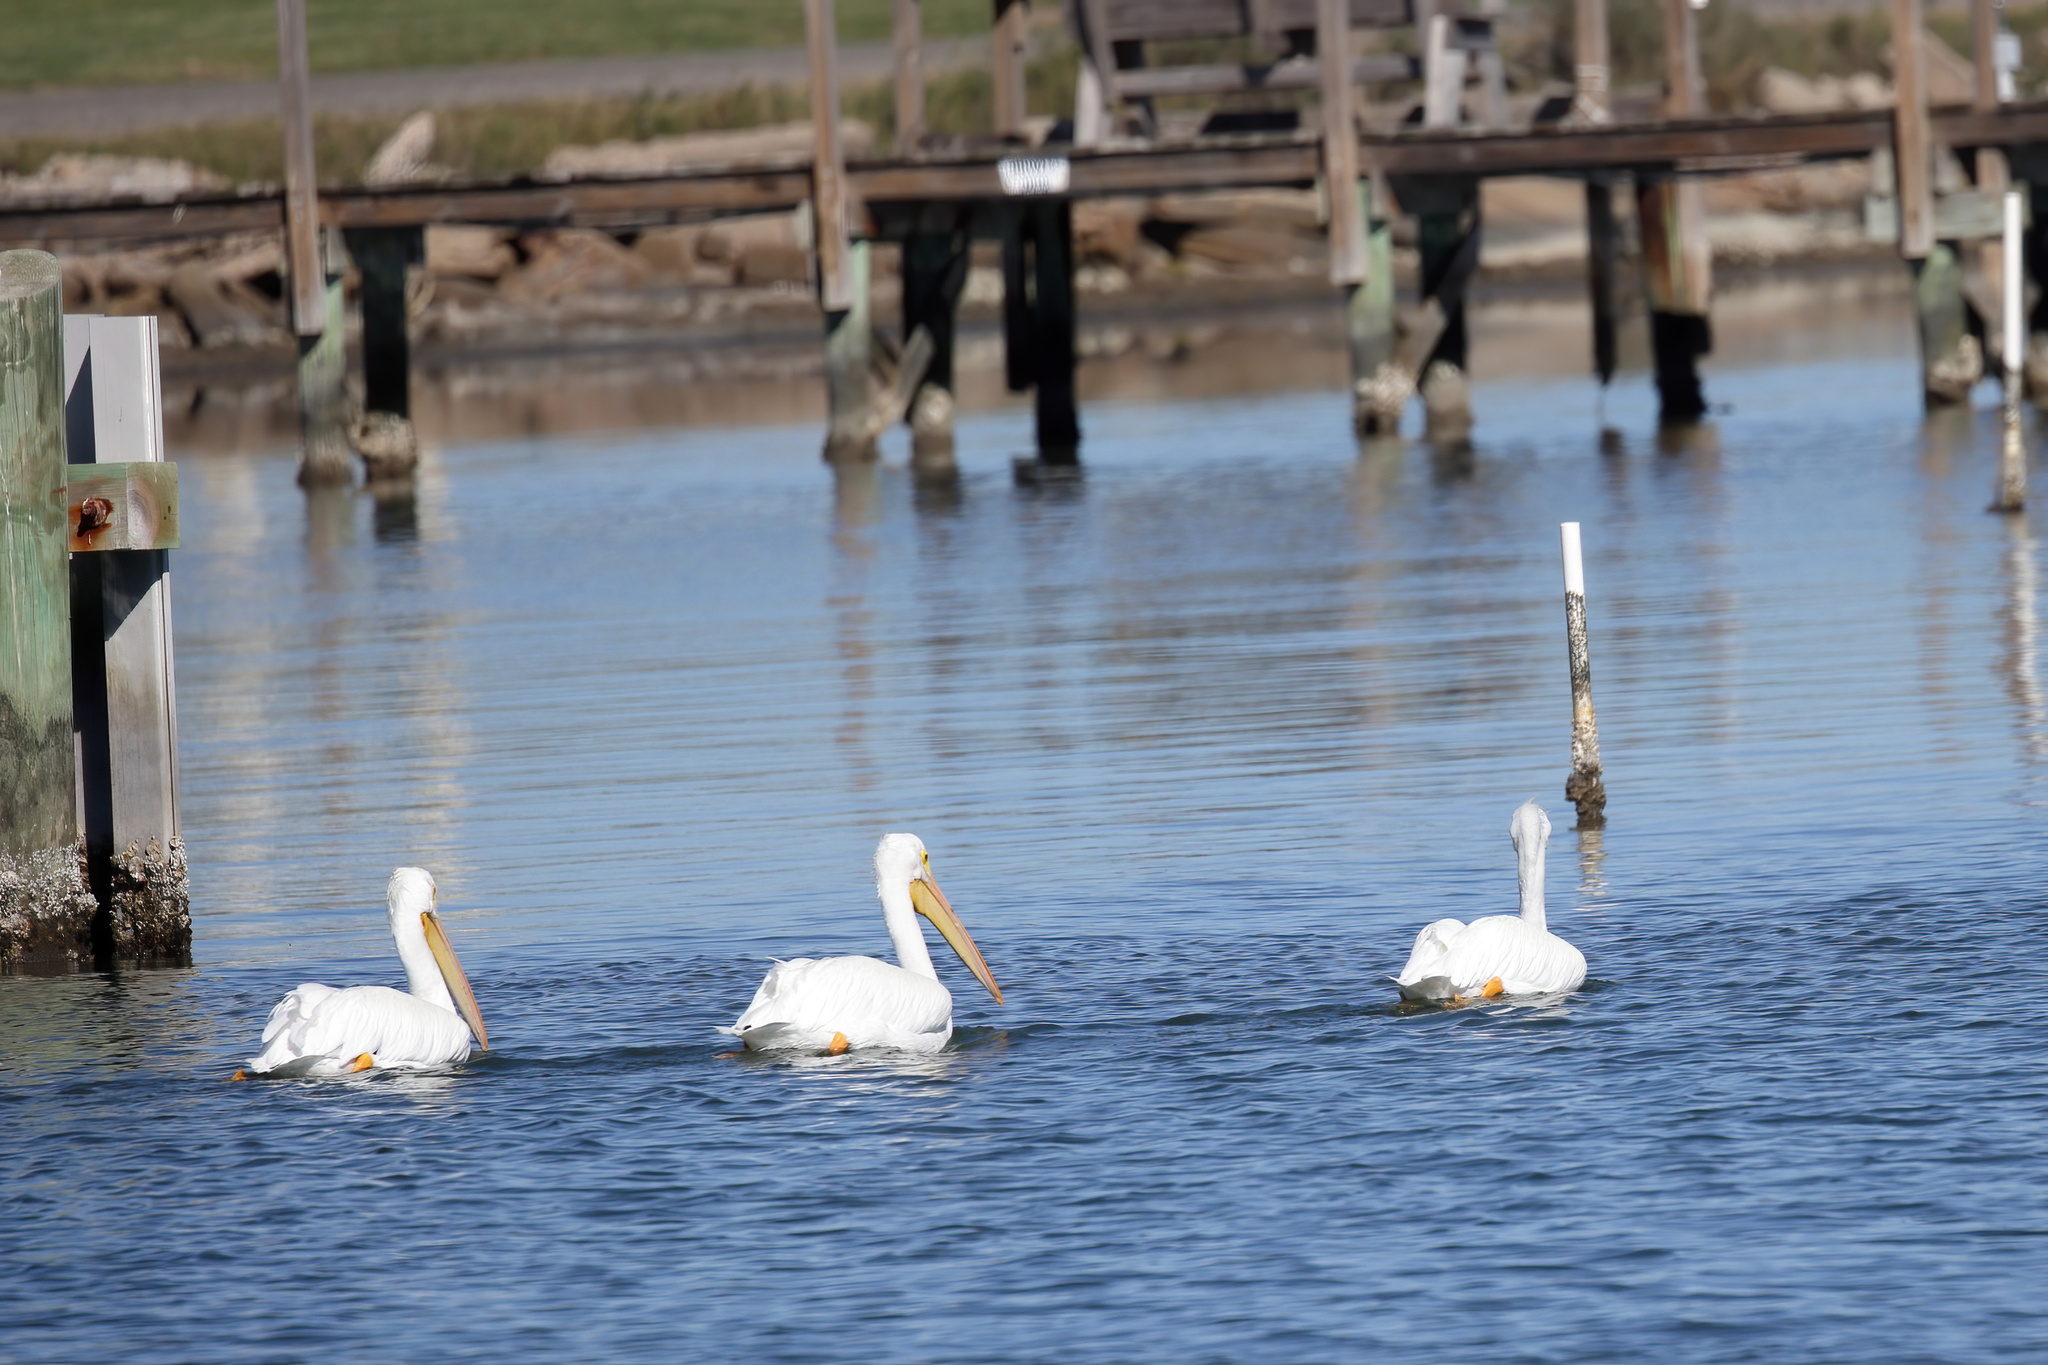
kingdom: Animalia
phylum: Chordata
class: Aves
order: Pelecaniformes
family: Pelecanidae
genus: Pelecanus
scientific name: Pelecanus erythrorhynchos
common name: American white pelican
